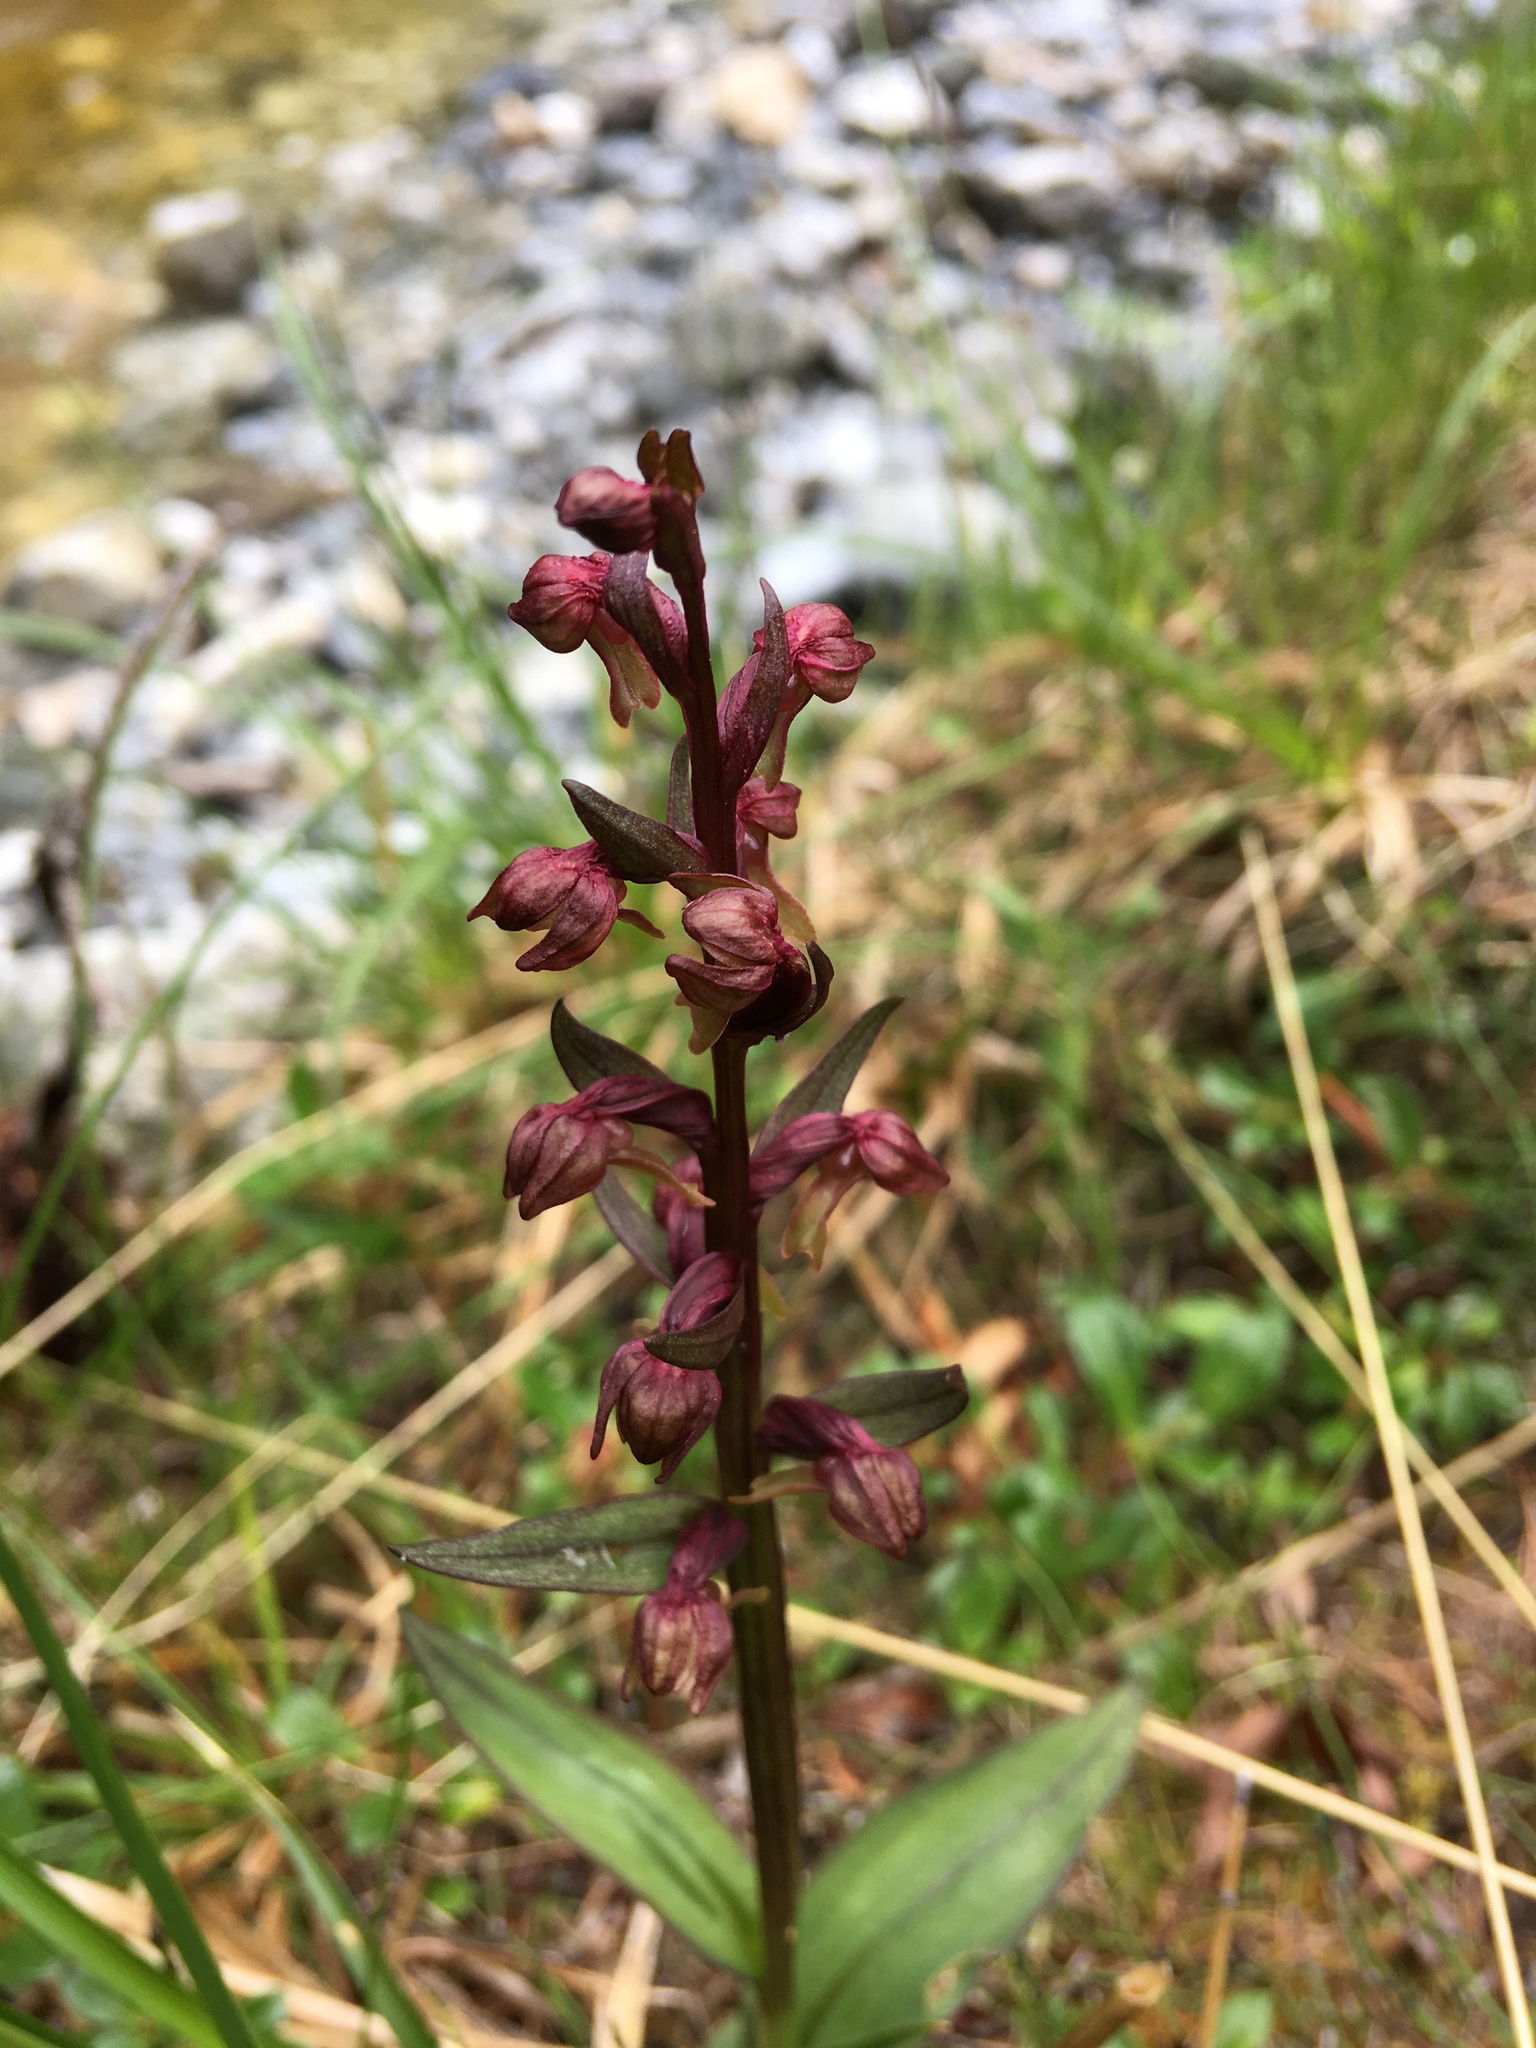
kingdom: Plantae
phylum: Tracheophyta
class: Liliopsida
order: Asparagales
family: Orchidaceae
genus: Dactylorhiza
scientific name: Dactylorhiza viridis
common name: Longbract frog orchid
